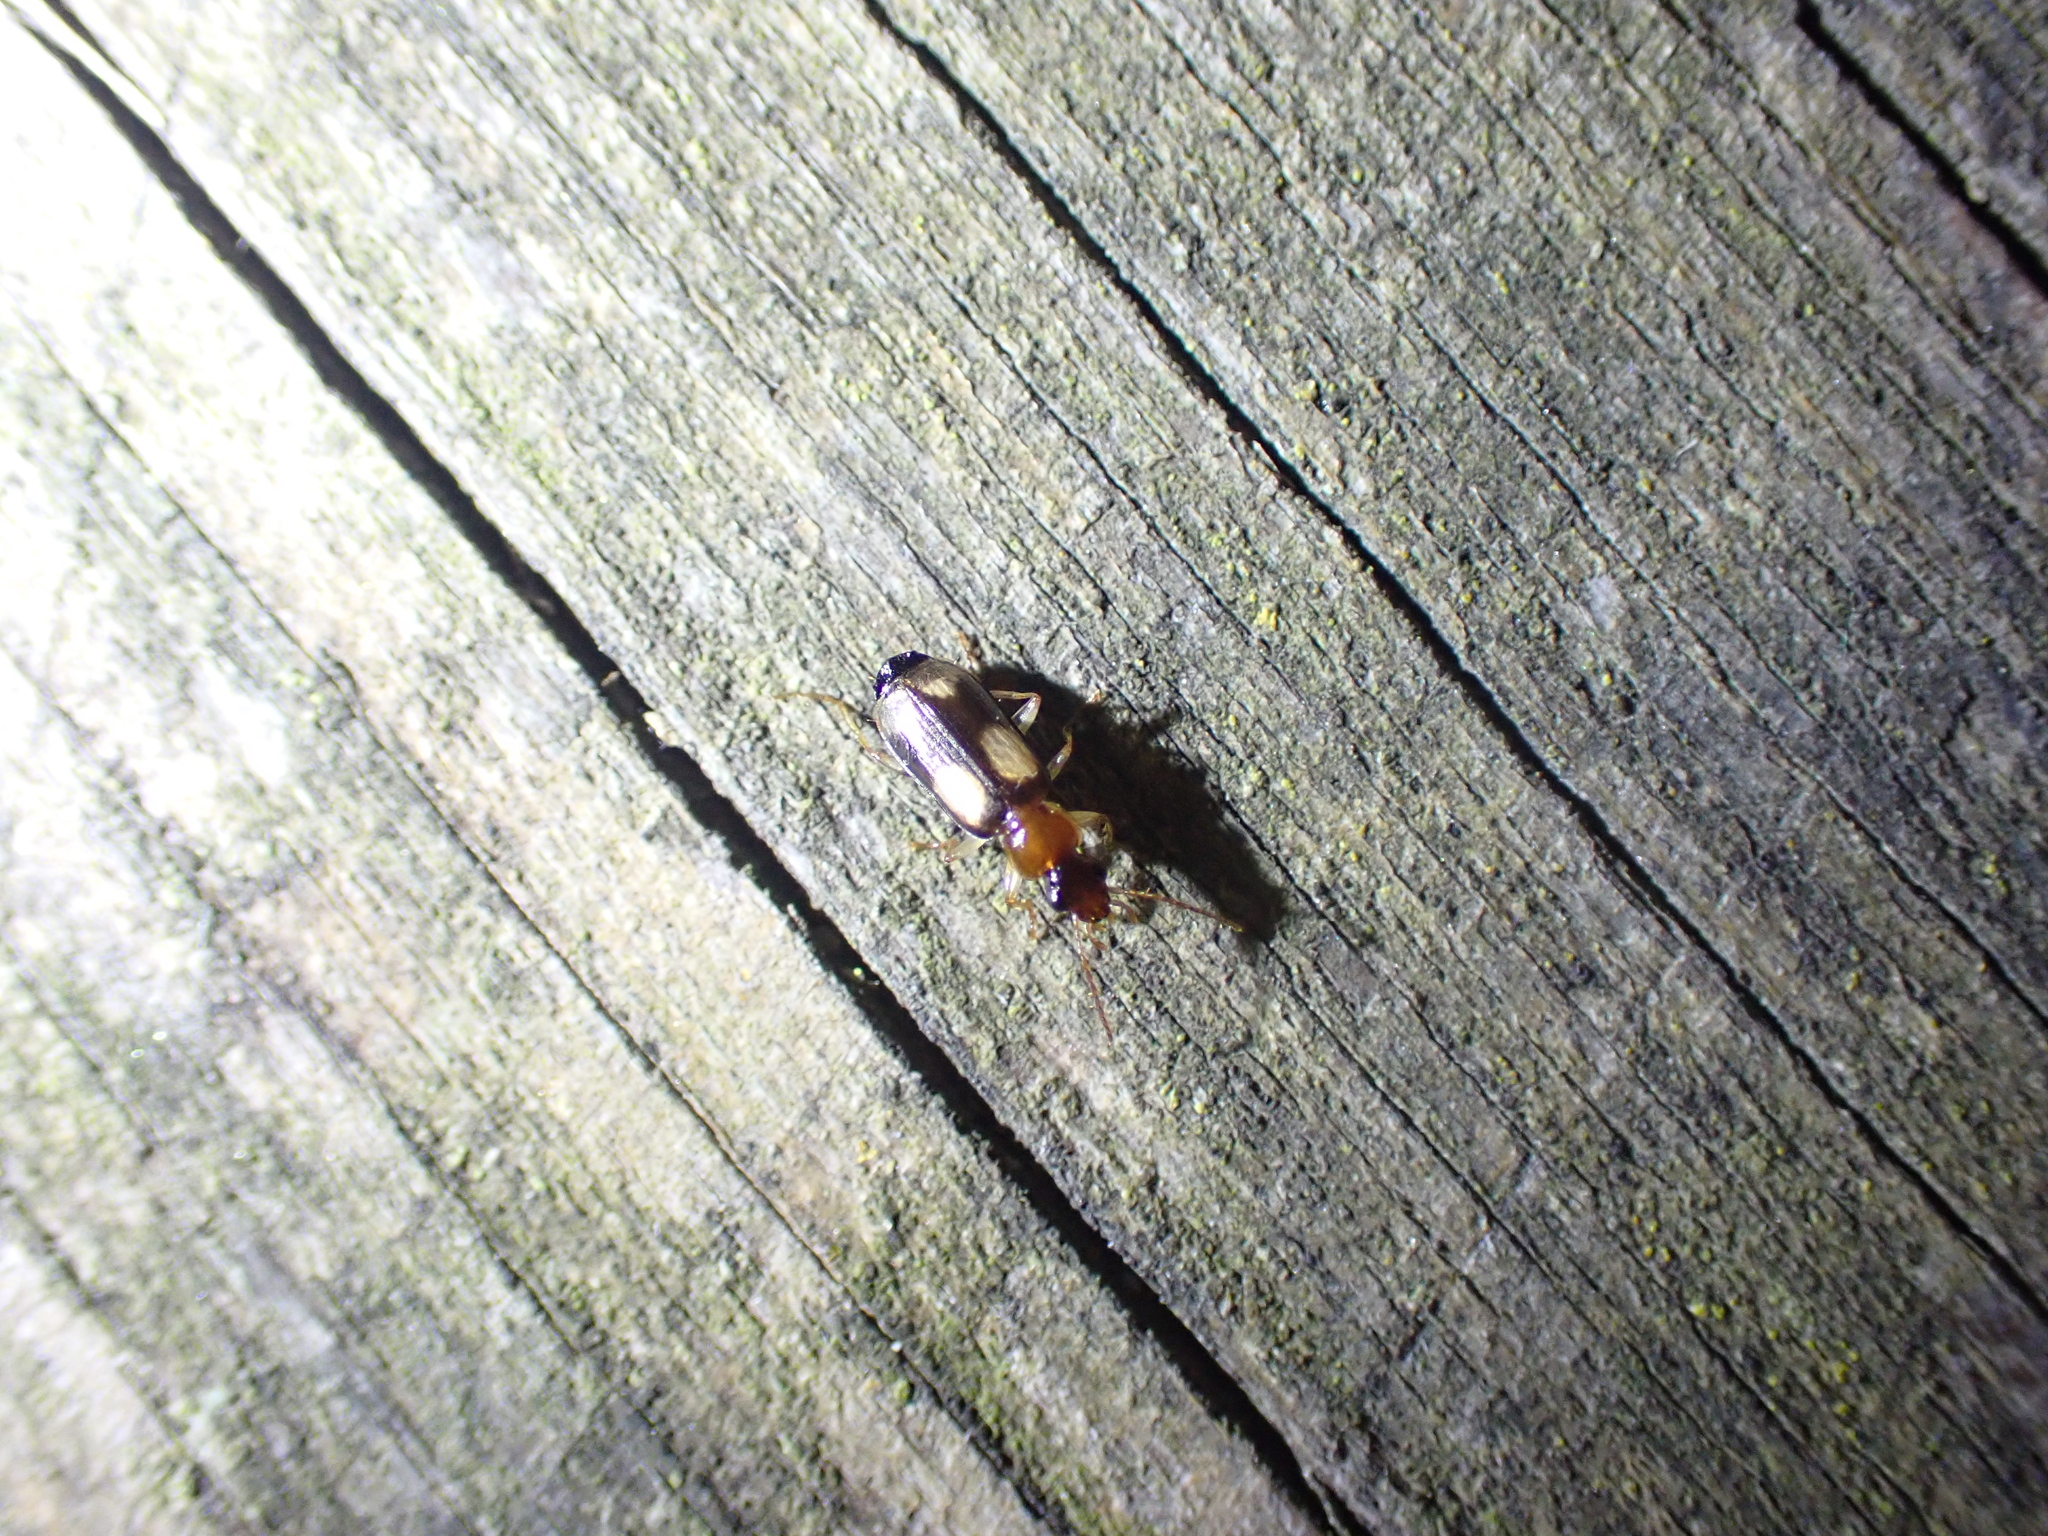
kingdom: Animalia
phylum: Arthropoda
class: Insecta
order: Coleoptera
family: Carabidae
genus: Dromius
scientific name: Dromius quadrimaculatus
